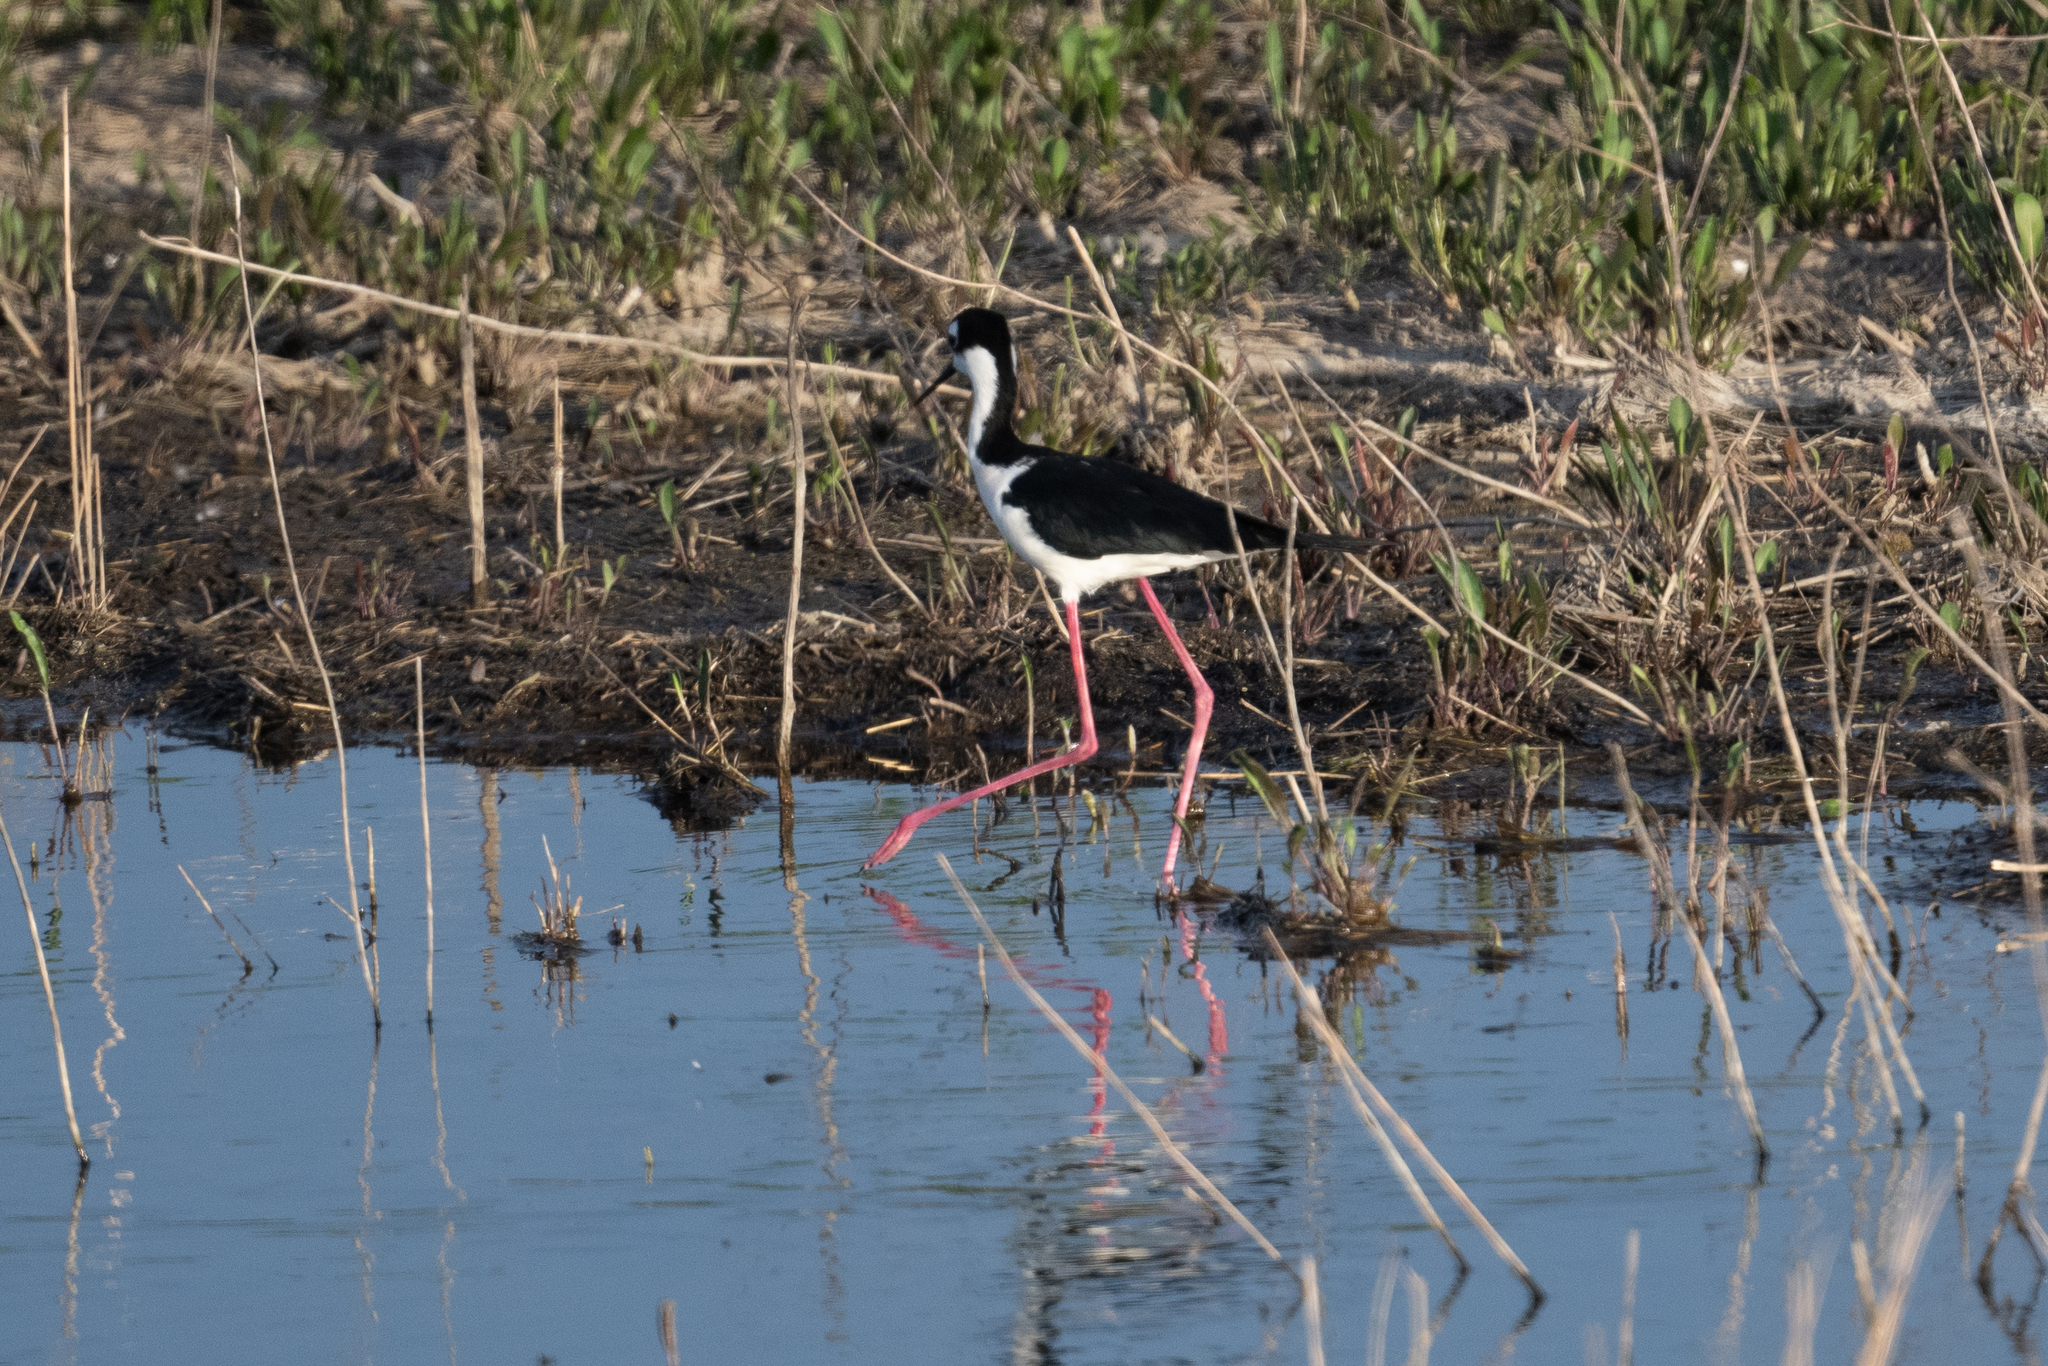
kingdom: Animalia
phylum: Chordata
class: Aves
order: Charadriiformes
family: Recurvirostridae
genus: Himantopus
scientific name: Himantopus mexicanus
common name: Black-necked stilt
